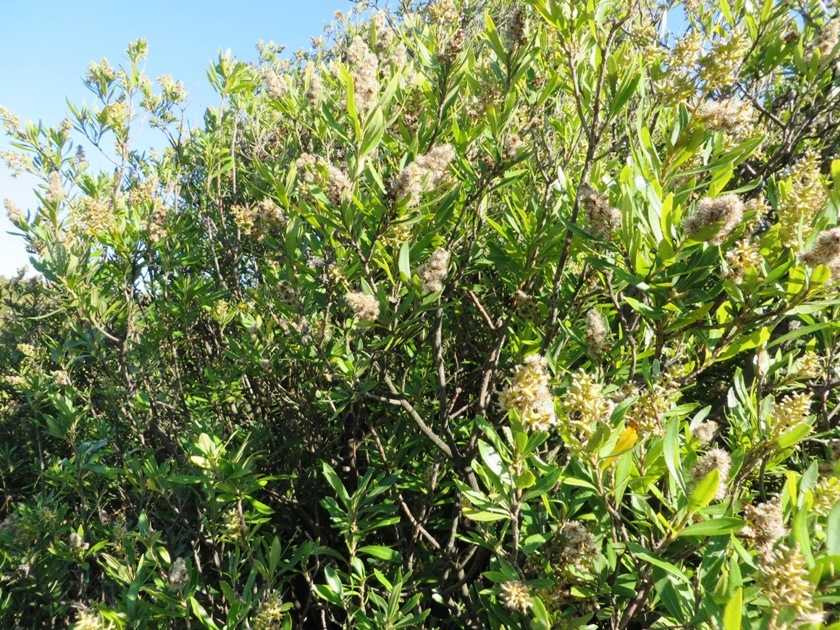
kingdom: Plantae
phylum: Tracheophyta
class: Magnoliopsida
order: Asterales
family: Asteraceae
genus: Brachylaena
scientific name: Brachylaena neriifolia
